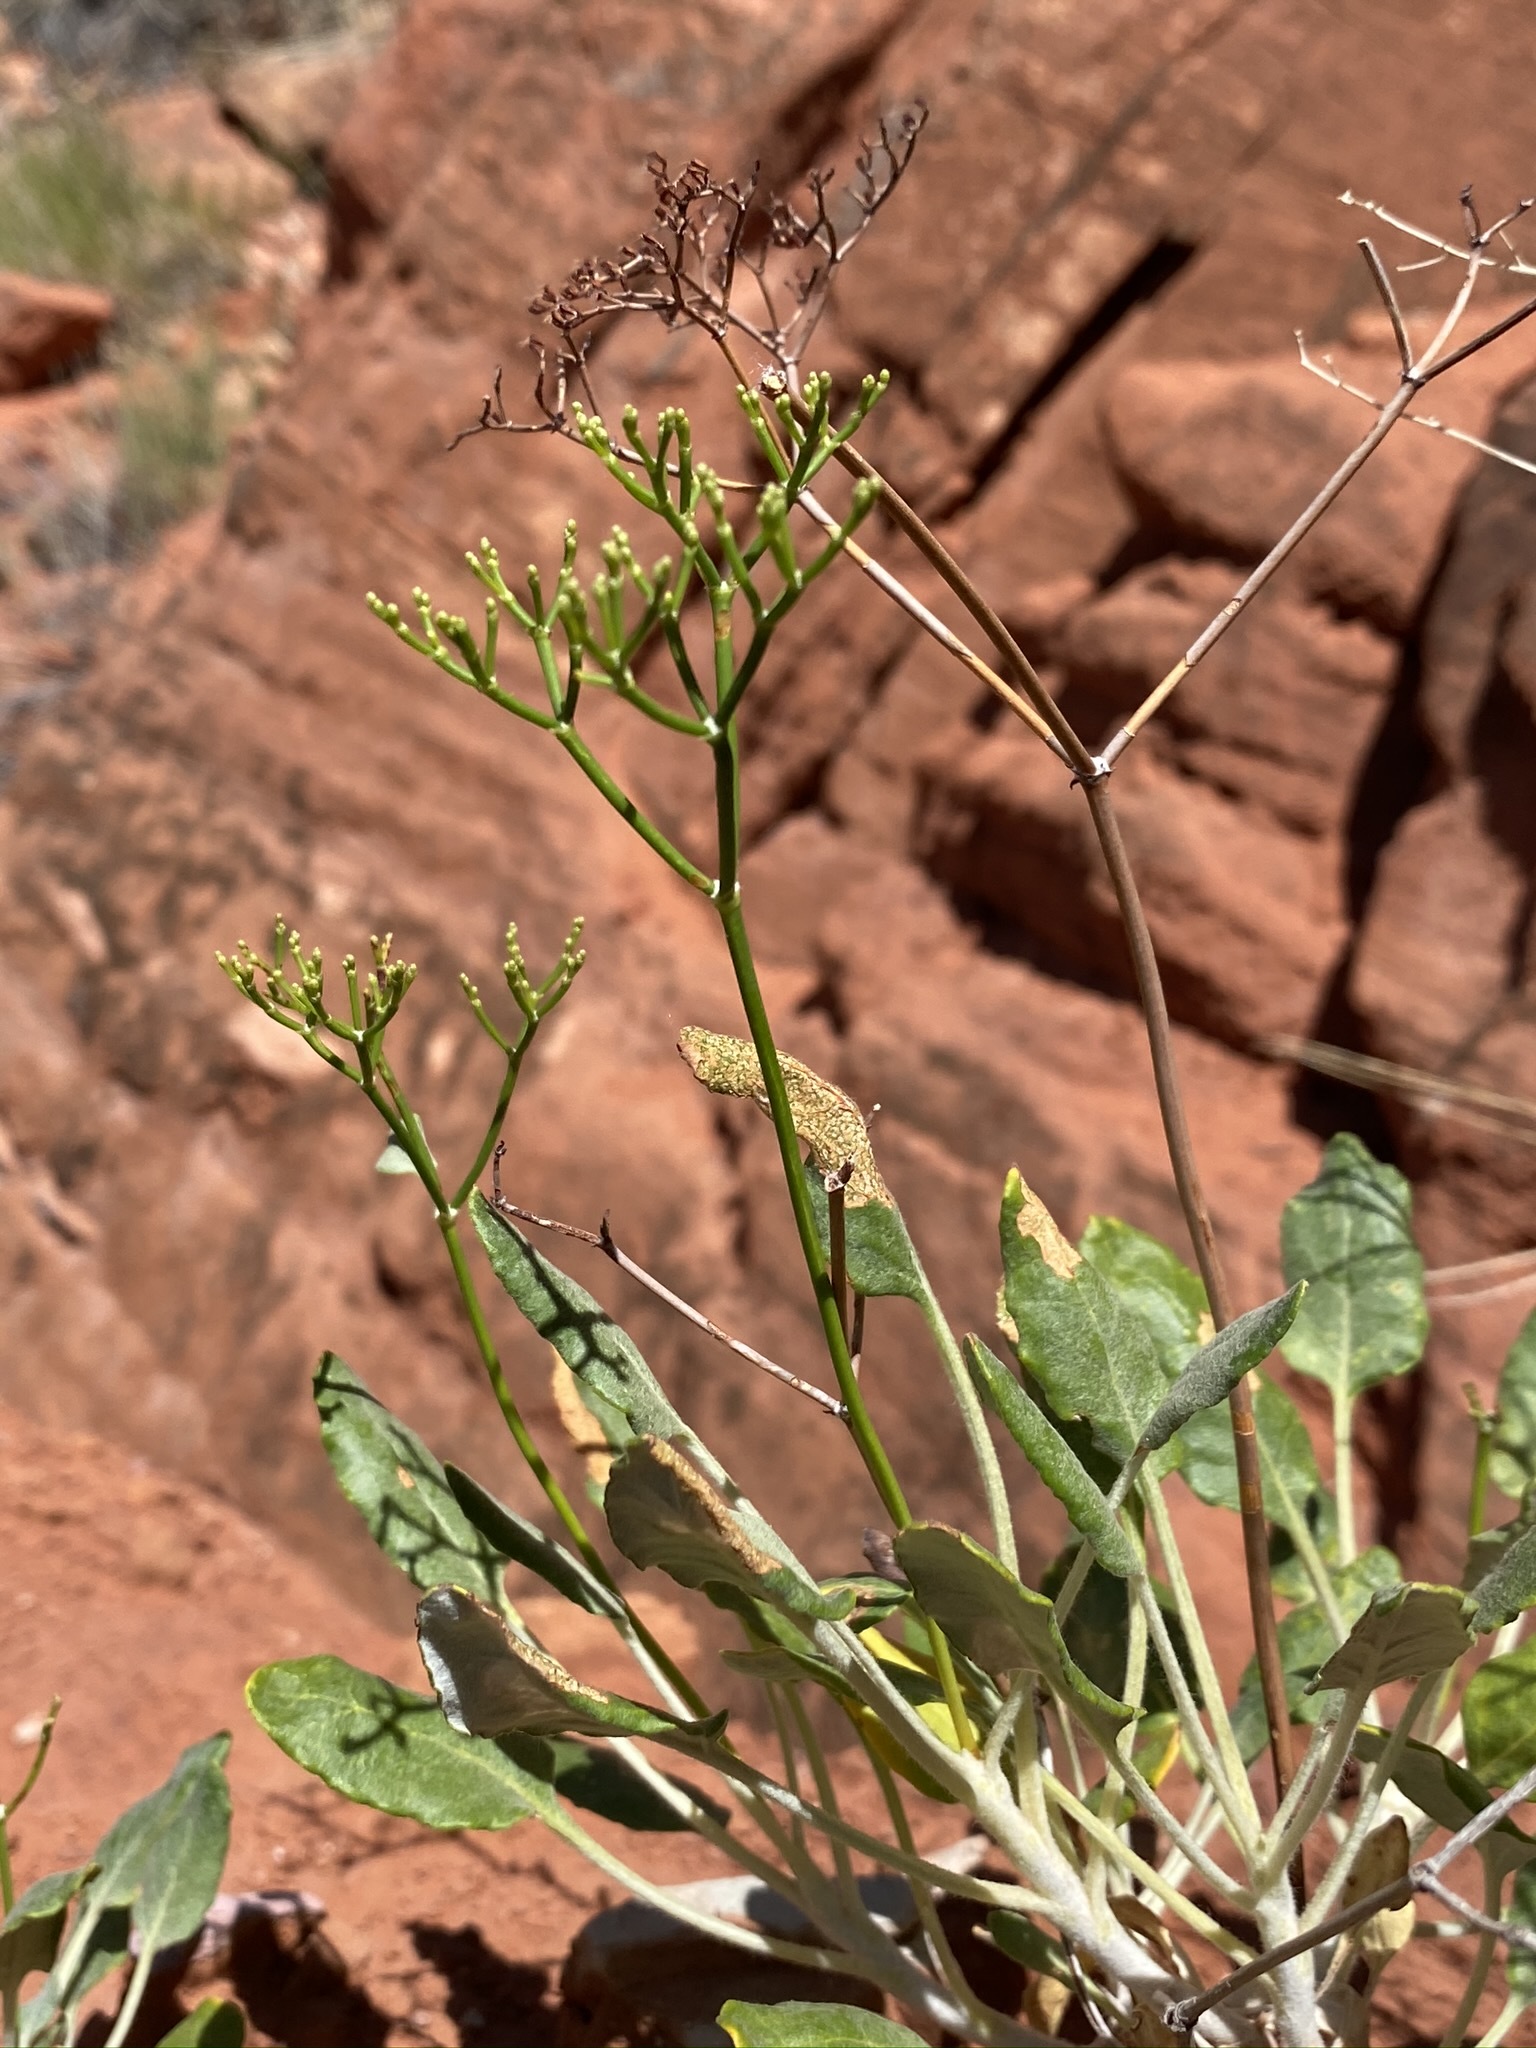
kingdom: Plantae
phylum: Tracheophyta
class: Magnoliopsida
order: Caryophyllales
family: Polygonaceae
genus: Eriogonum
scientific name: Eriogonum thompsoniae
